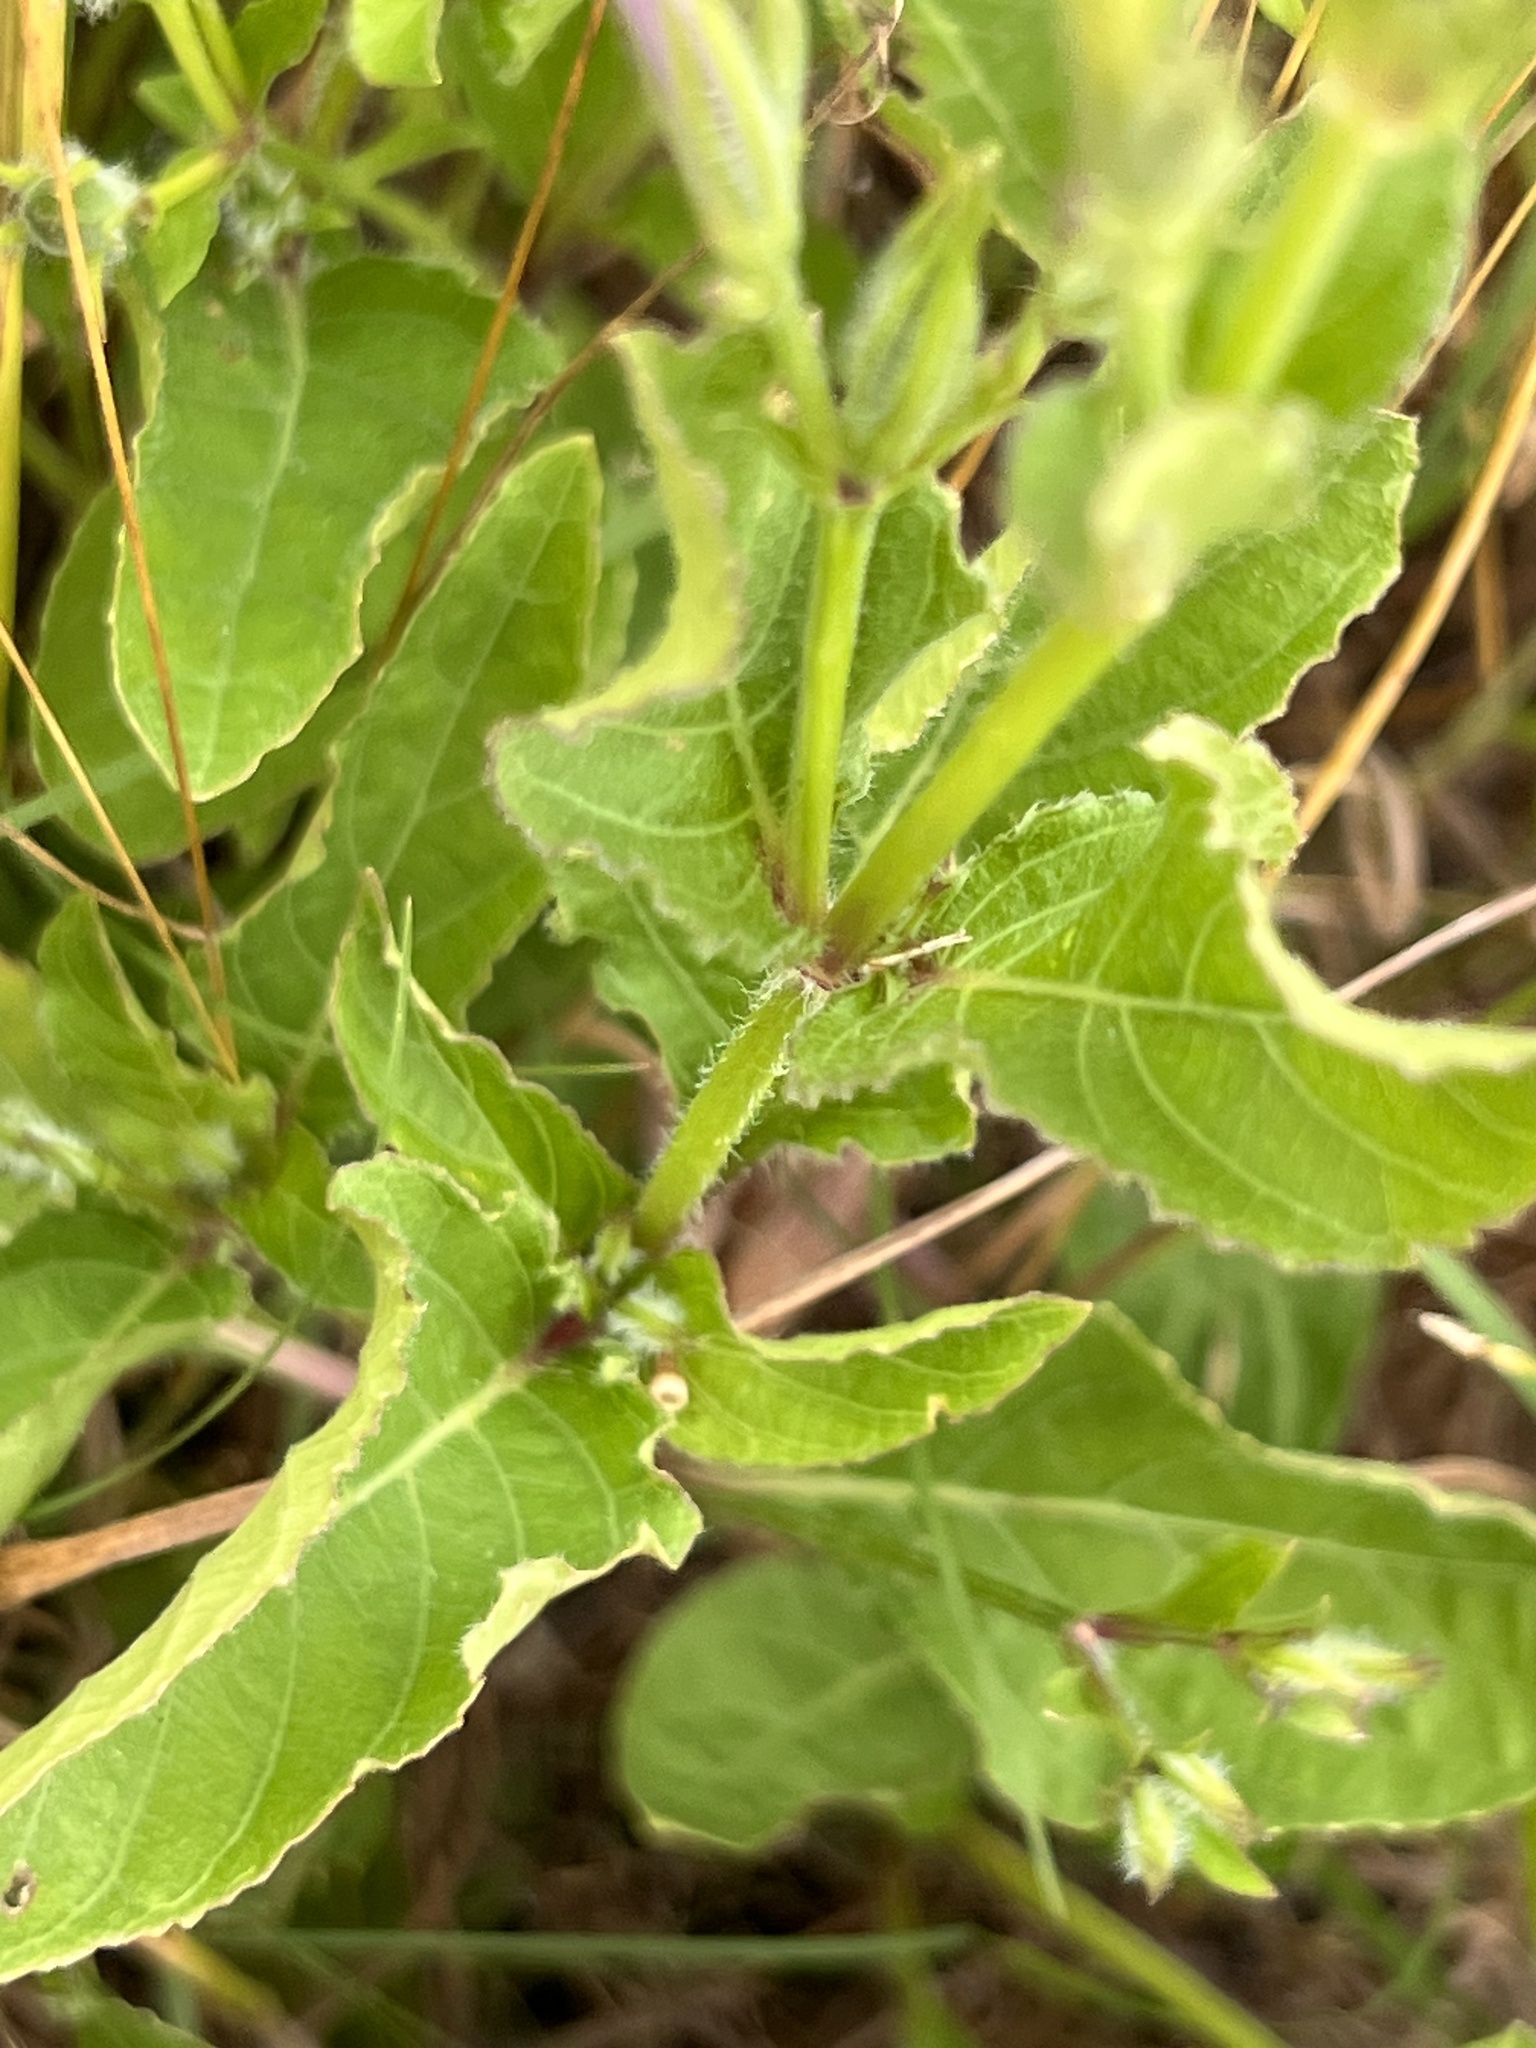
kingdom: Plantae
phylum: Tracheophyta
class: Magnoliopsida
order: Lamiales
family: Acanthaceae
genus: Ruellia
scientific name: Ruellia ciliatiflora
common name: Hairyflower wild petunia
